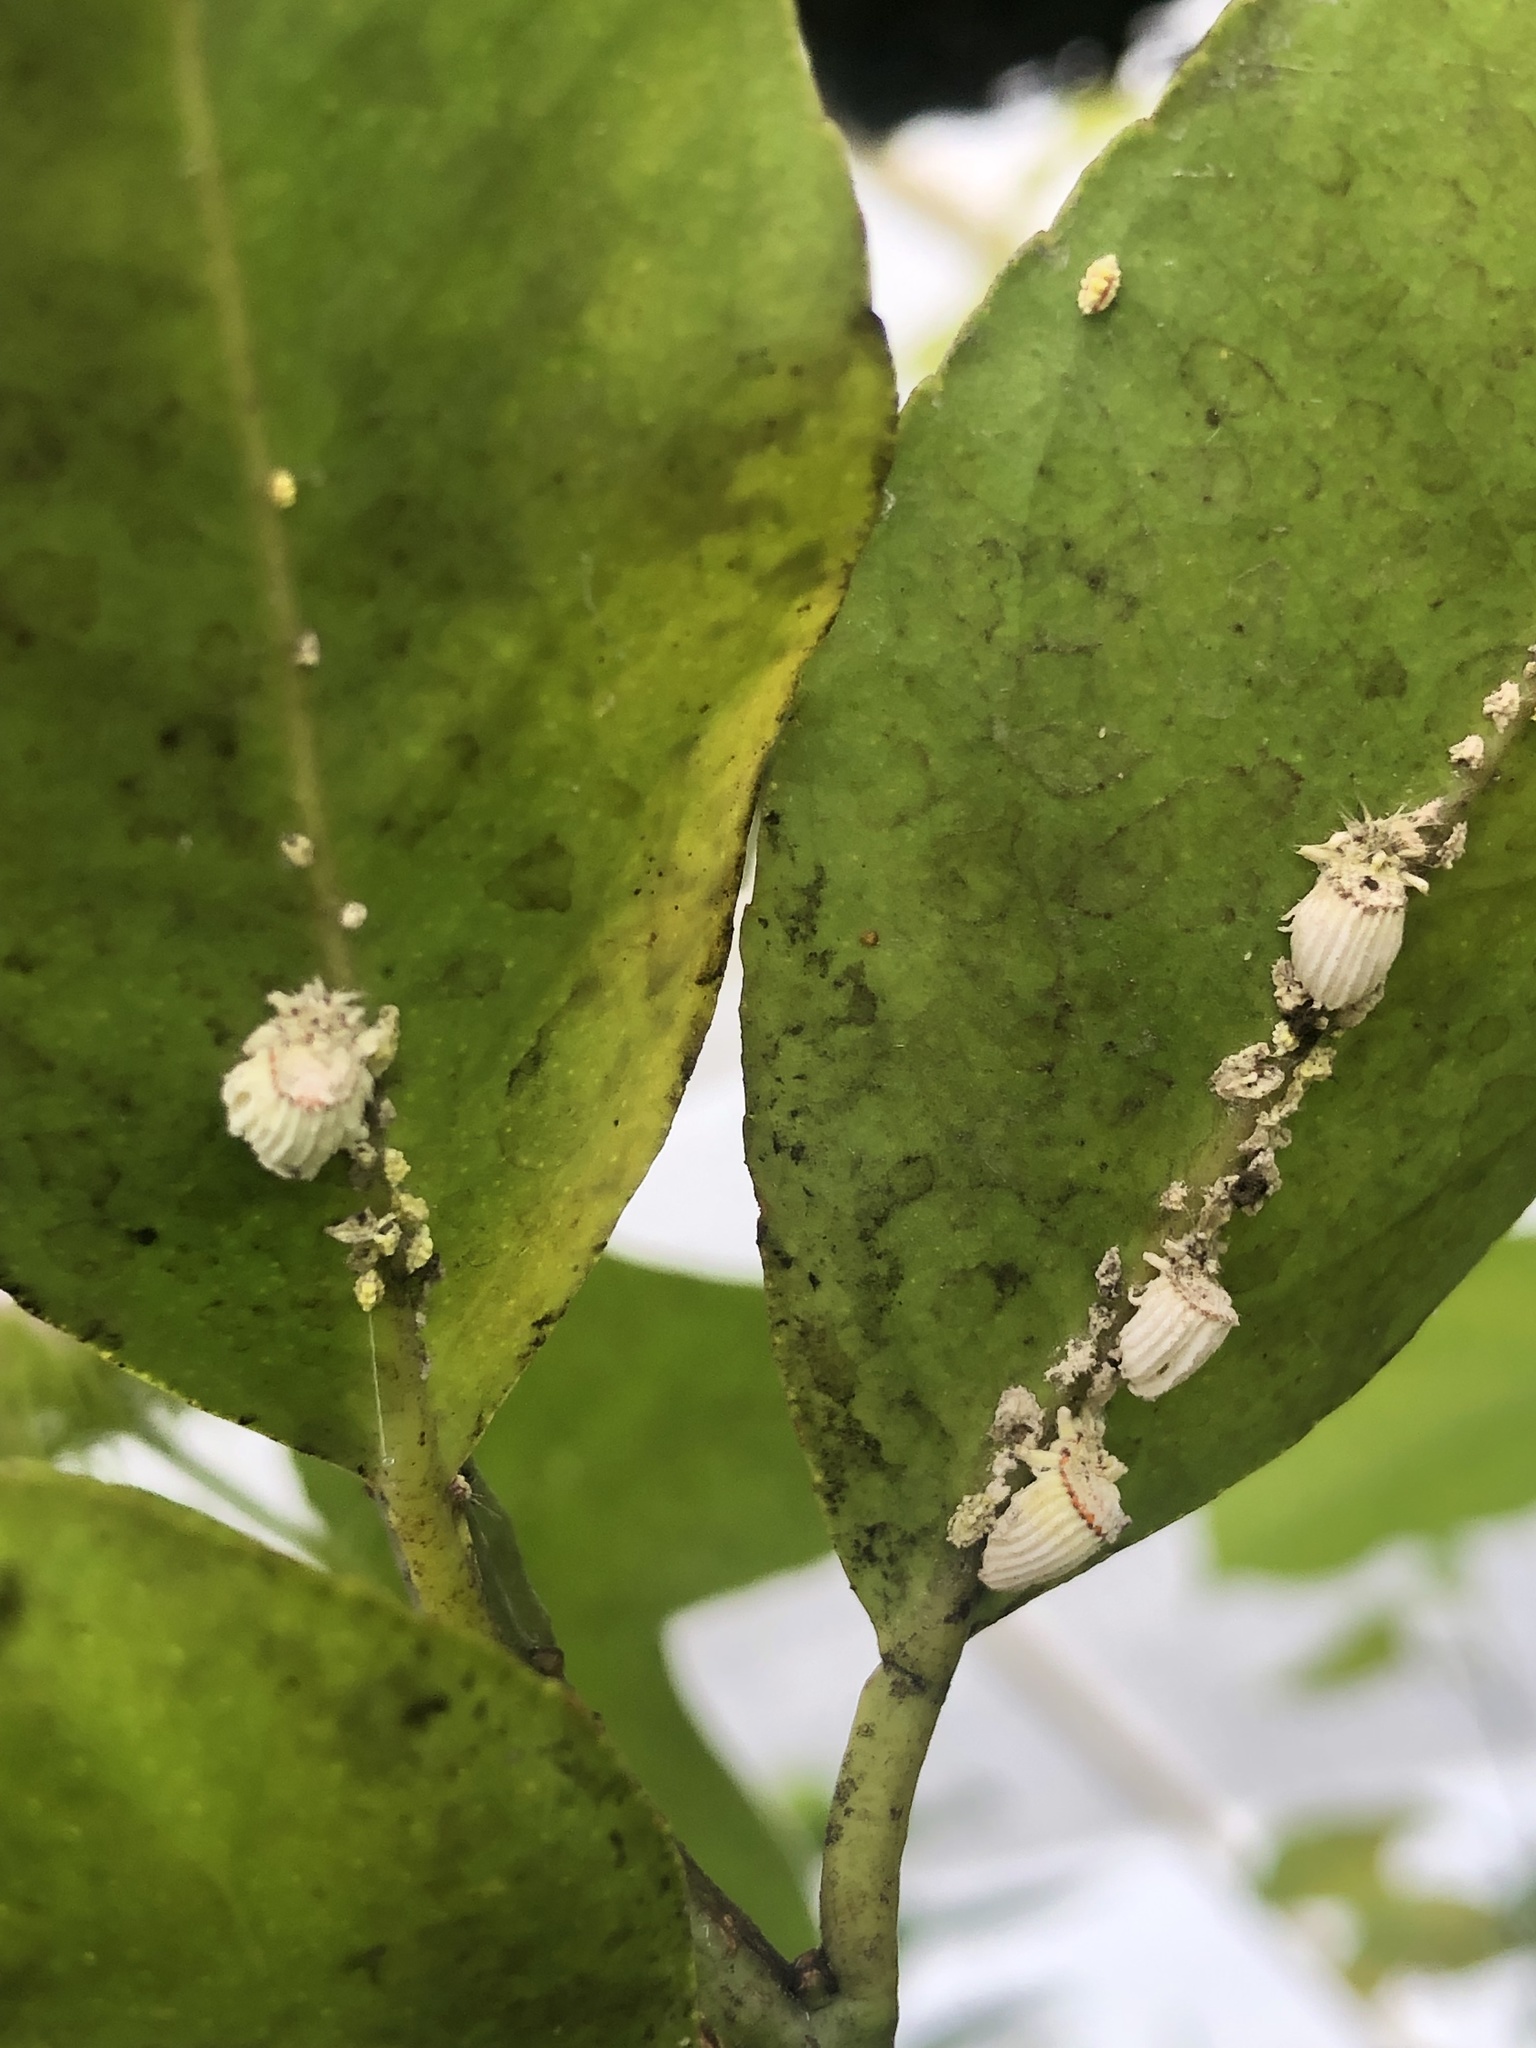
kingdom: Animalia
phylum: Arthropoda
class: Insecta
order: Hemiptera
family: Margarodidae
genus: Icerya
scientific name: Icerya purchasi
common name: Cottony cushion scale
